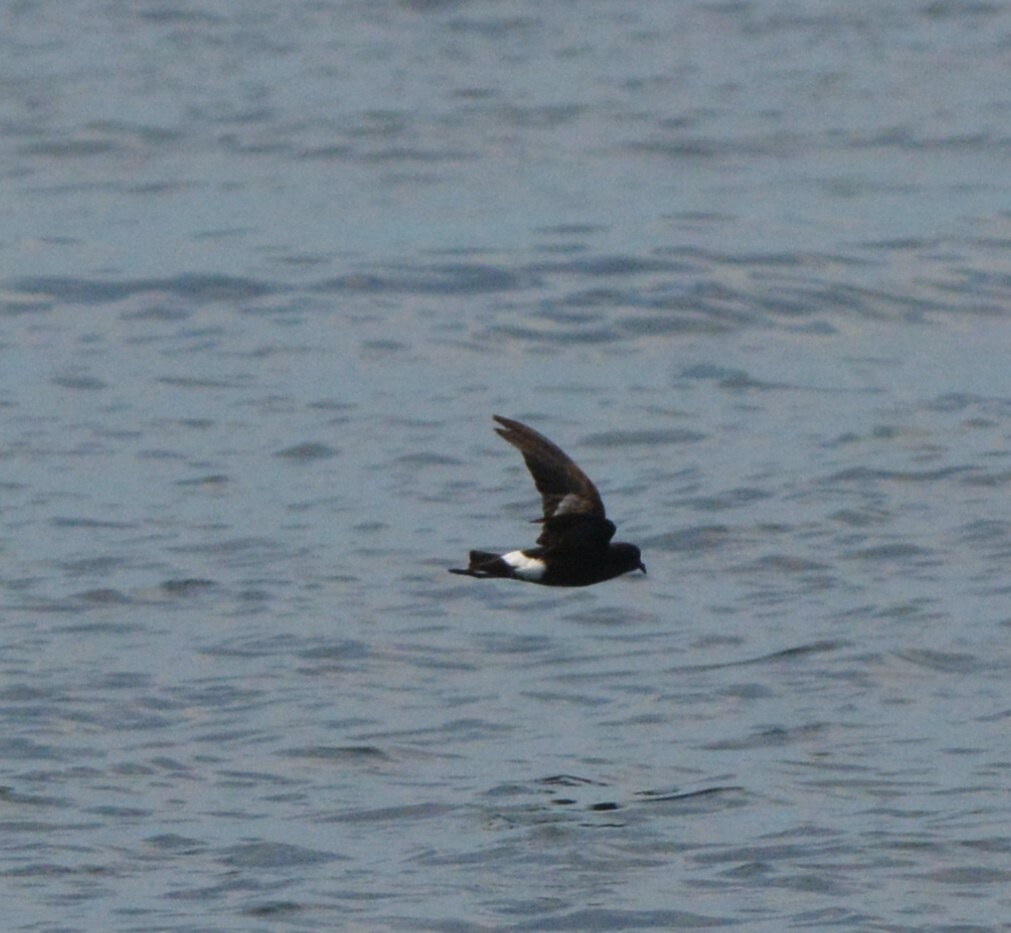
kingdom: Animalia
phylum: Chordata
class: Aves
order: Procellariiformes
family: Hydrobatidae
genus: Oceanites
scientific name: Oceanites oceanicus
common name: Wilson's storm petrel
